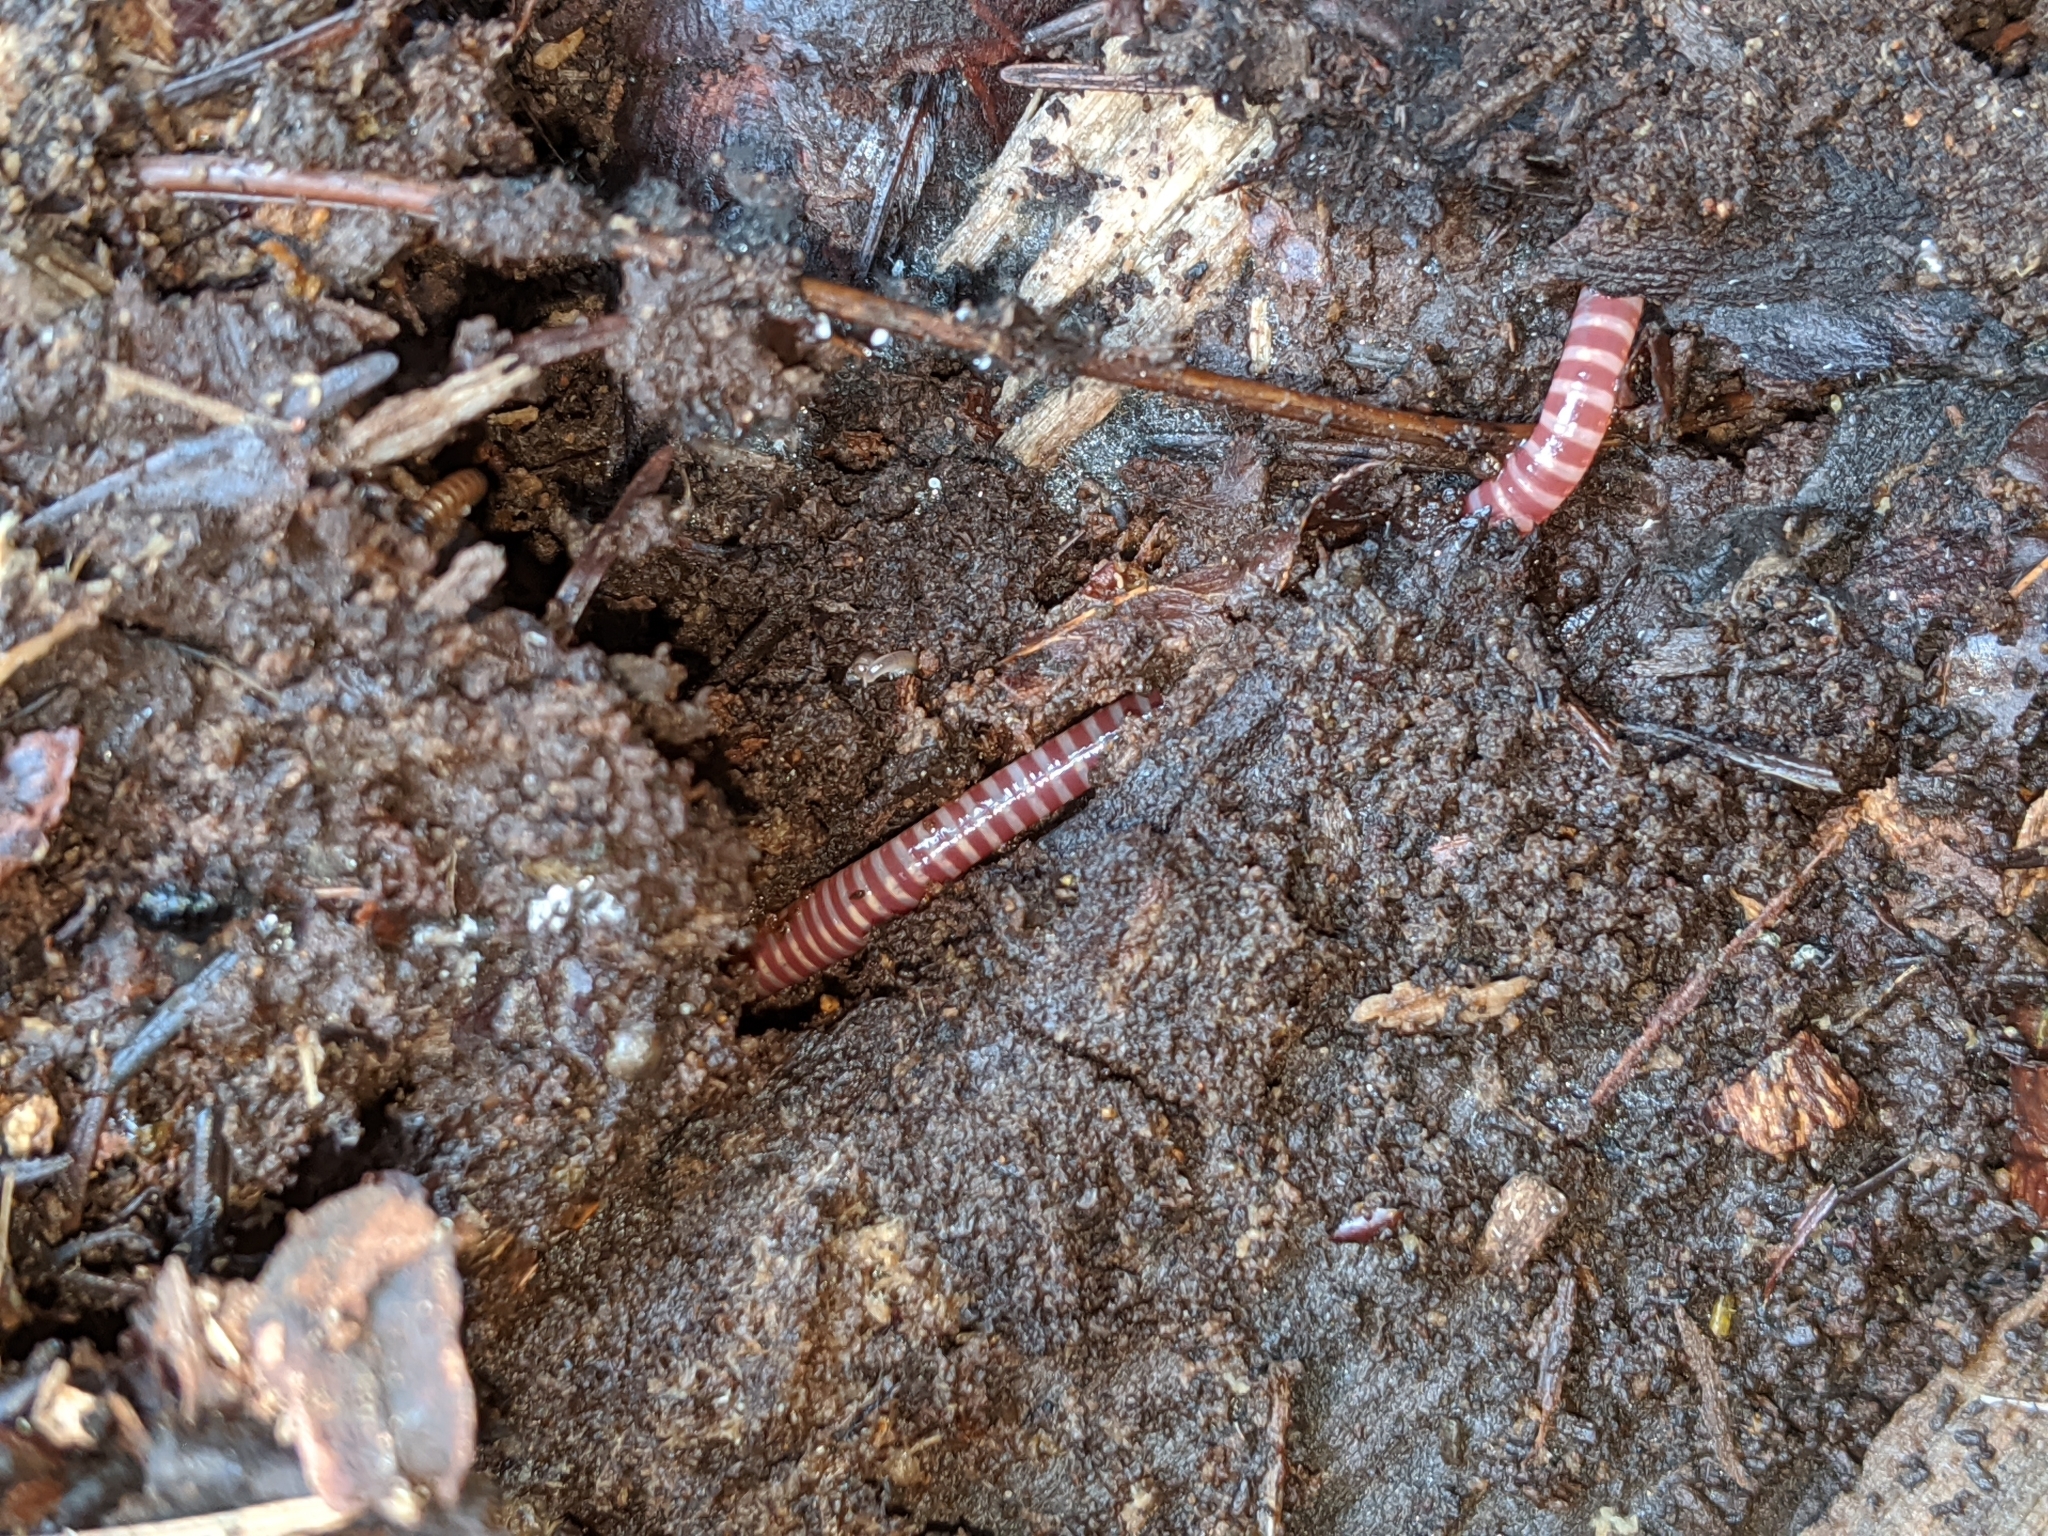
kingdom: Animalia
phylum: Annelida
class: Clitellata
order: Crassiclitellata
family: Lumbricidae
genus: Eisenia
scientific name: Eisenia fetida
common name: Red wiggler
